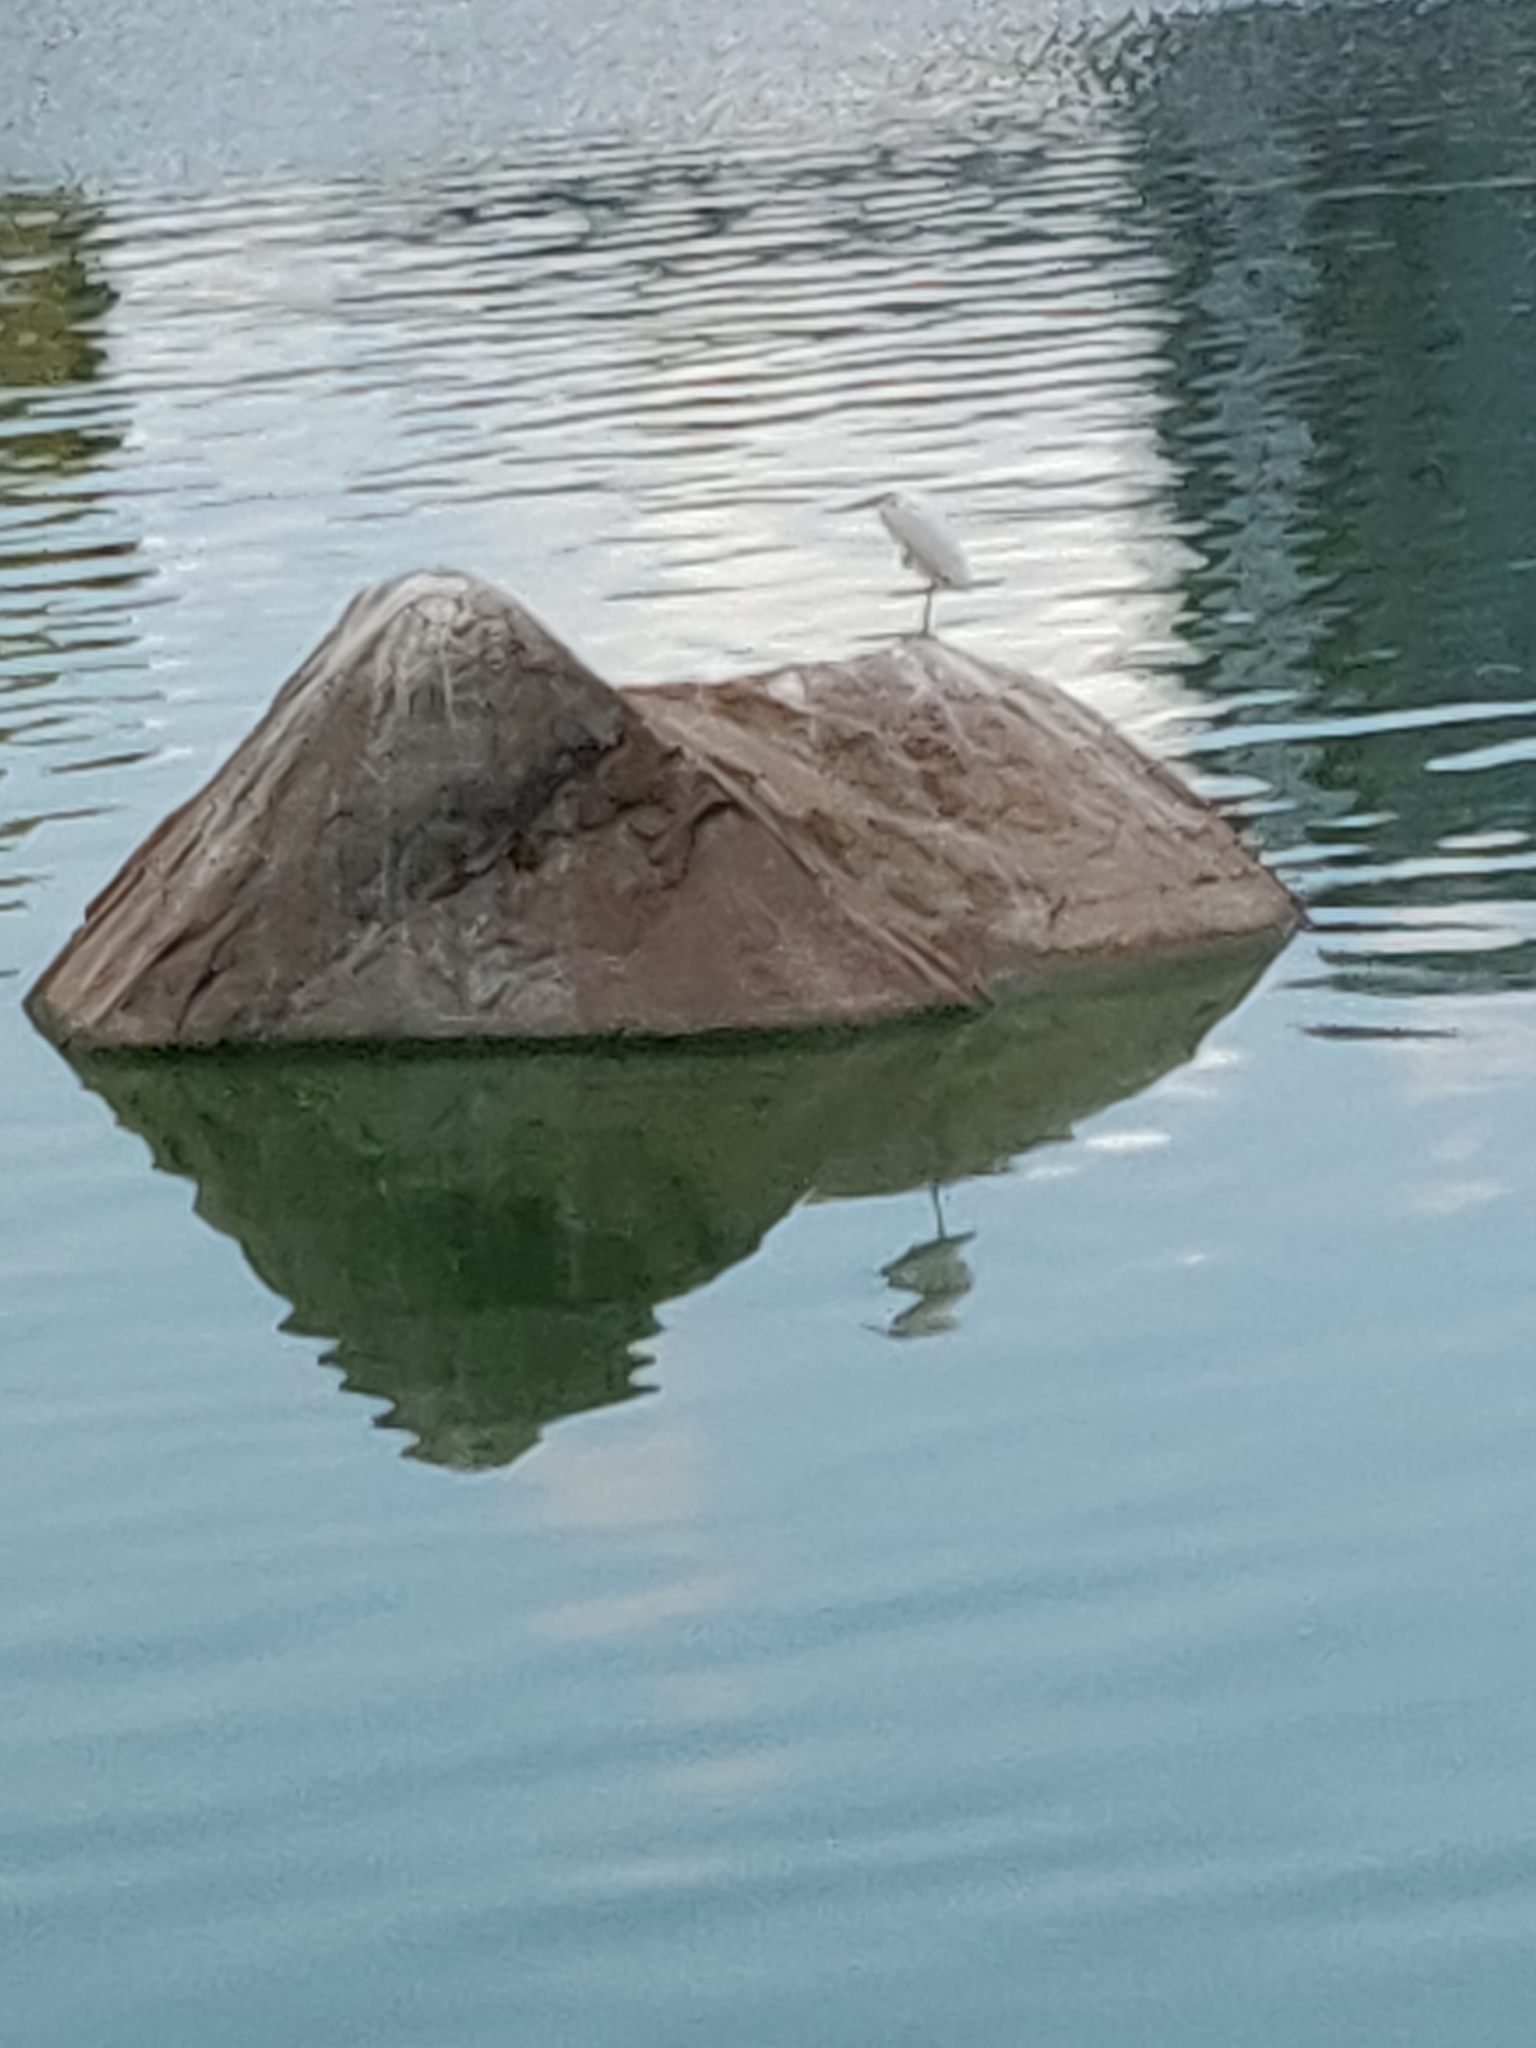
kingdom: Animalia
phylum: Chordata
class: Aves
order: Pelecaniformes
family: Ardeidae
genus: Egretta
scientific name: Egretta garzetta
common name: Little egret
